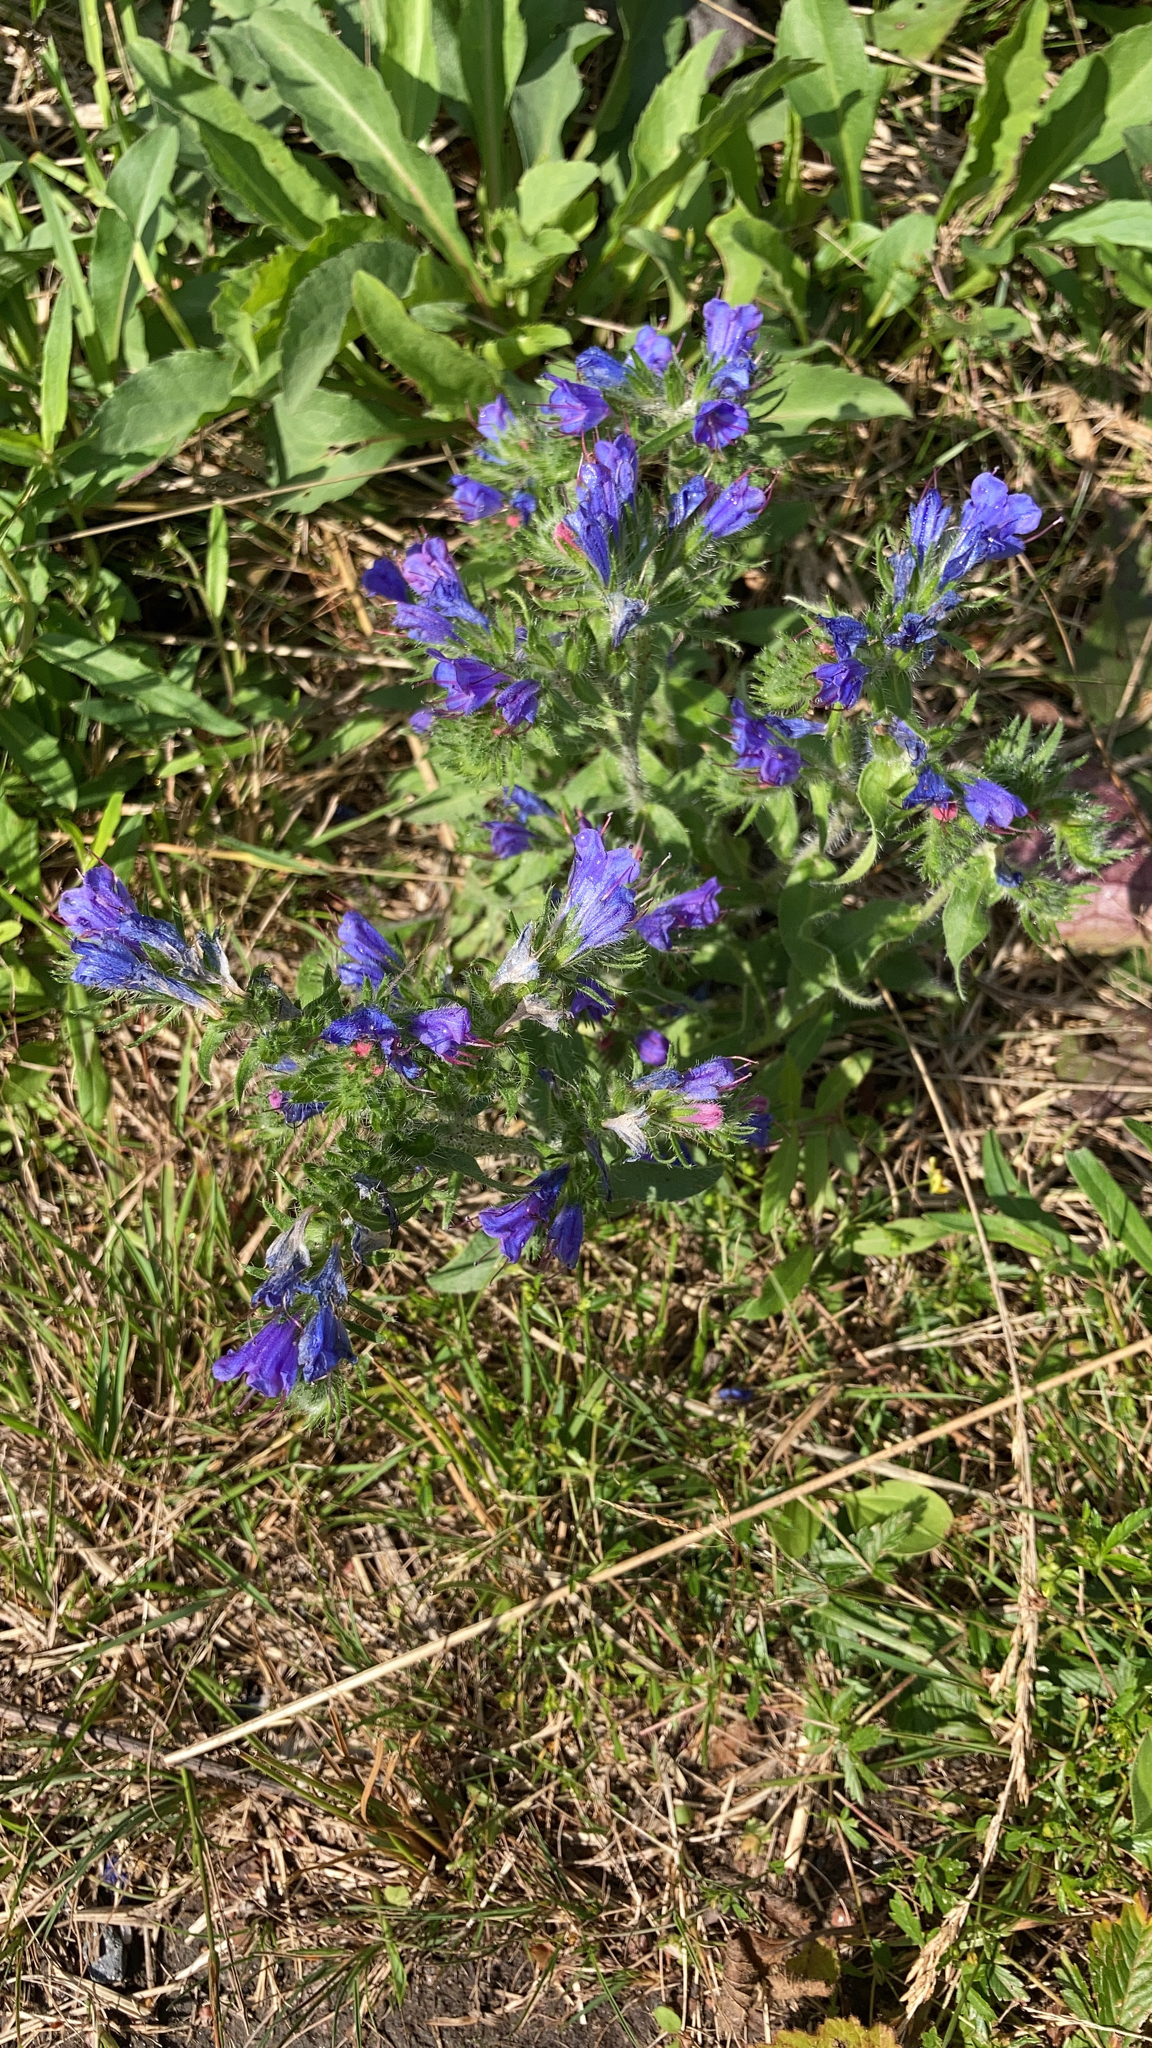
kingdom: Plantae
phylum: Tracheophyta
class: Magnoliopsida
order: Boraginales
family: Boraginaceae
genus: Echium
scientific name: Echium vulgare
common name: Common viper's bugloss
